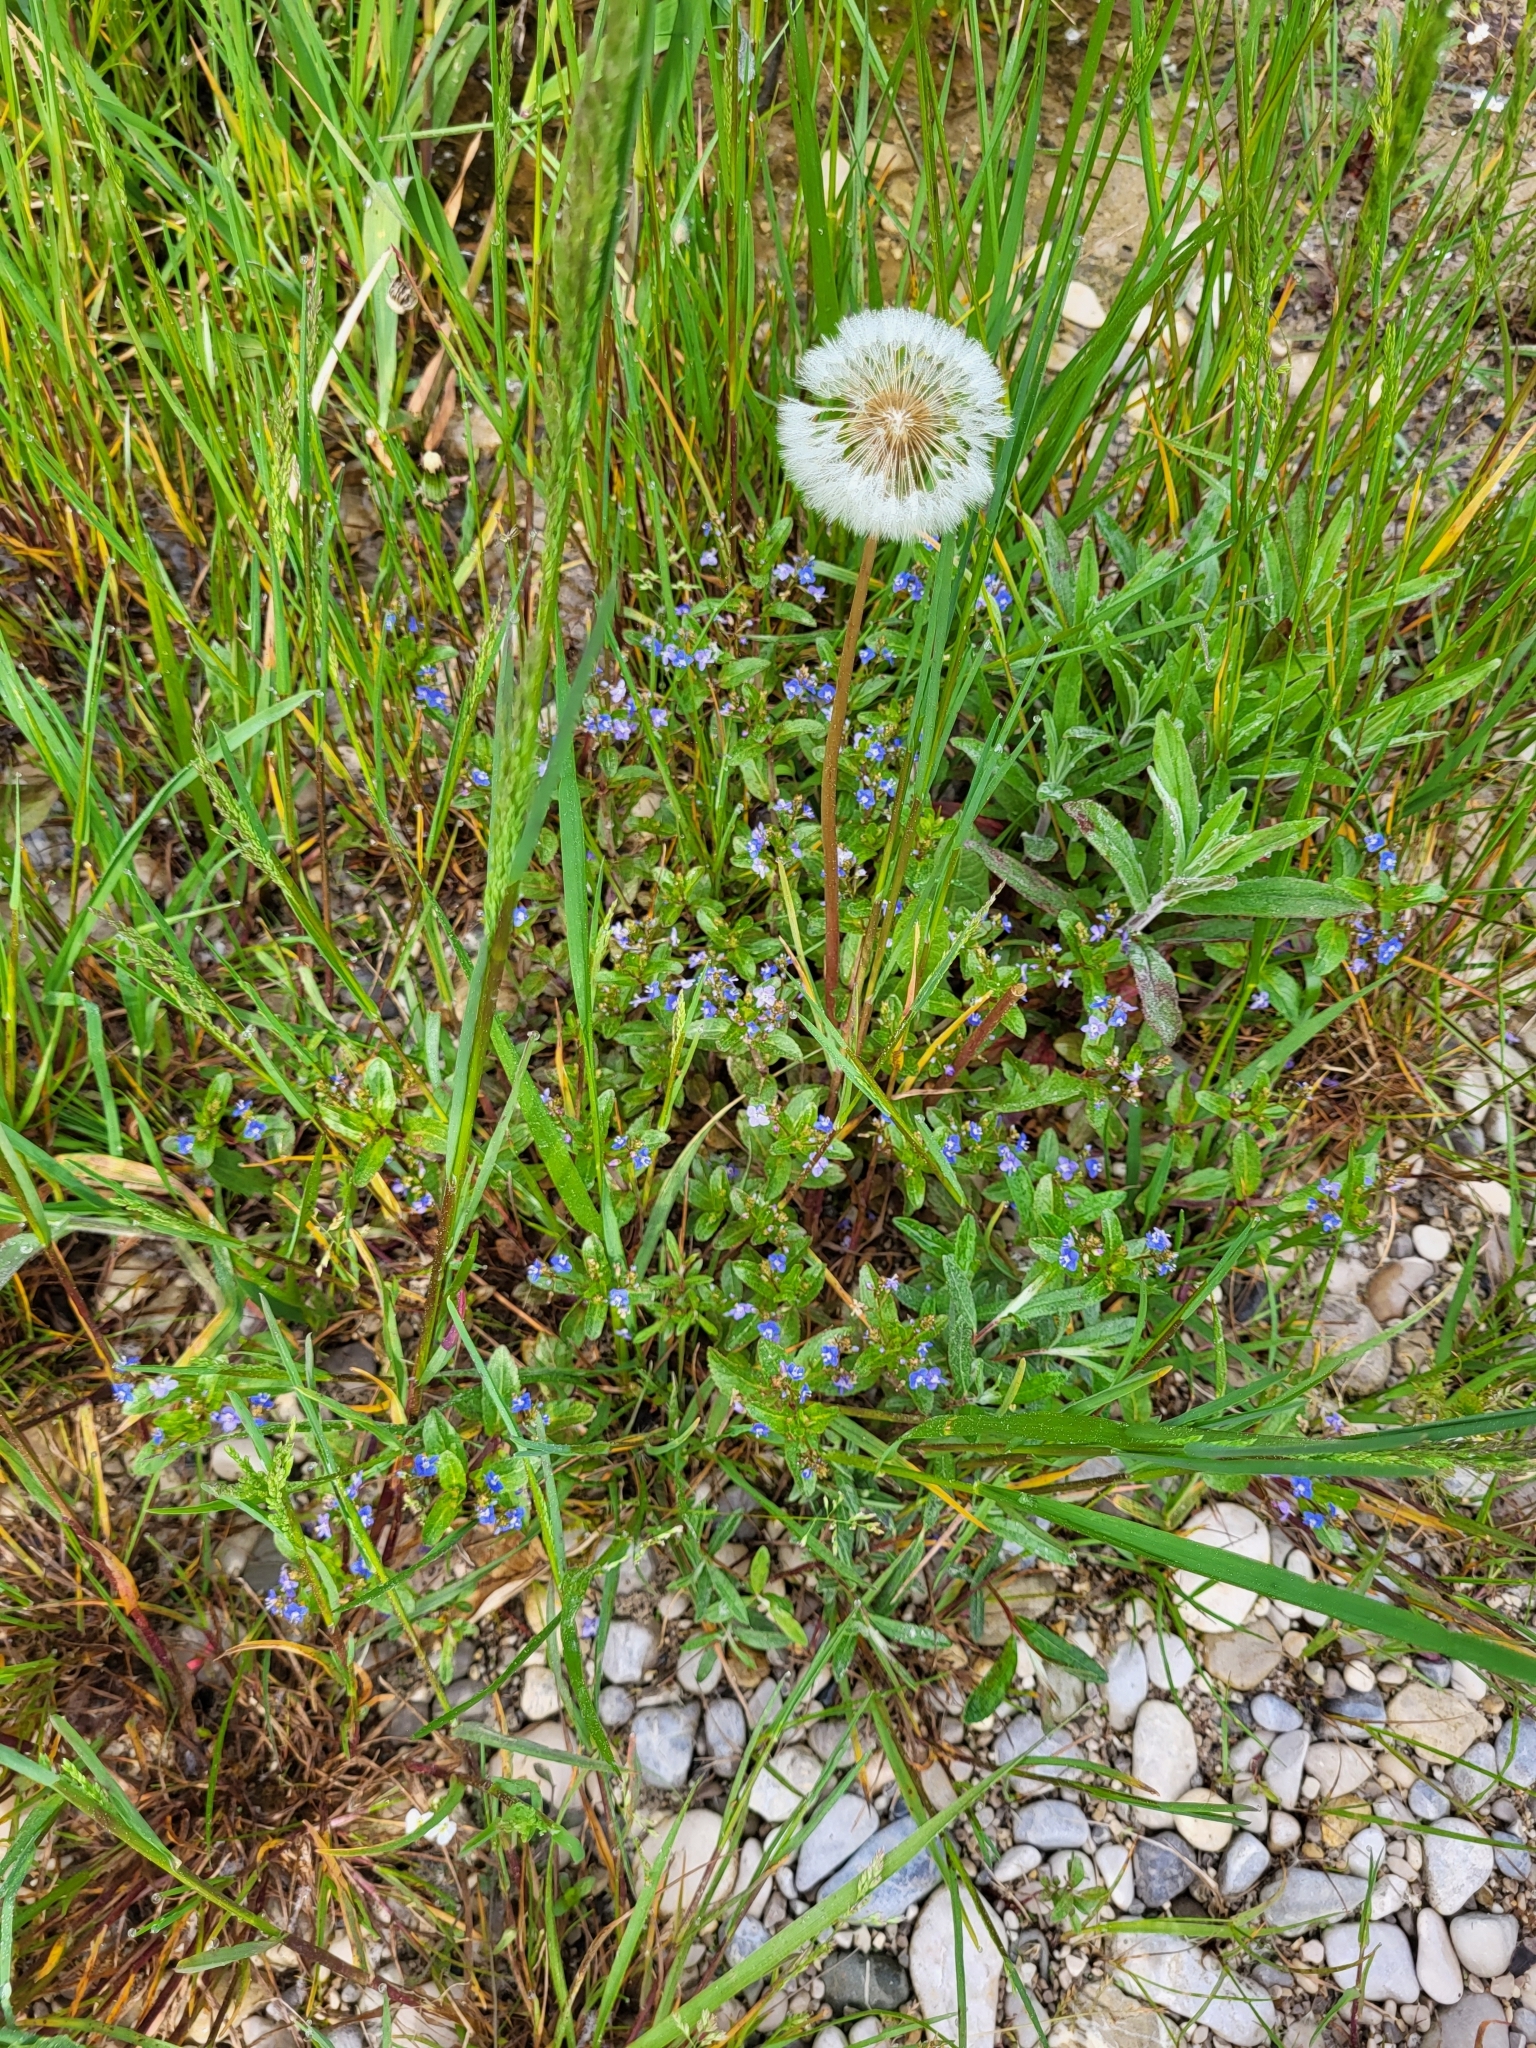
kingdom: Plantae
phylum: Tracheophyta
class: Magnoliopsida
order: Lamiales
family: Plantaginaceae
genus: Veronica
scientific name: Veronica beccabunga
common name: Brooklime
